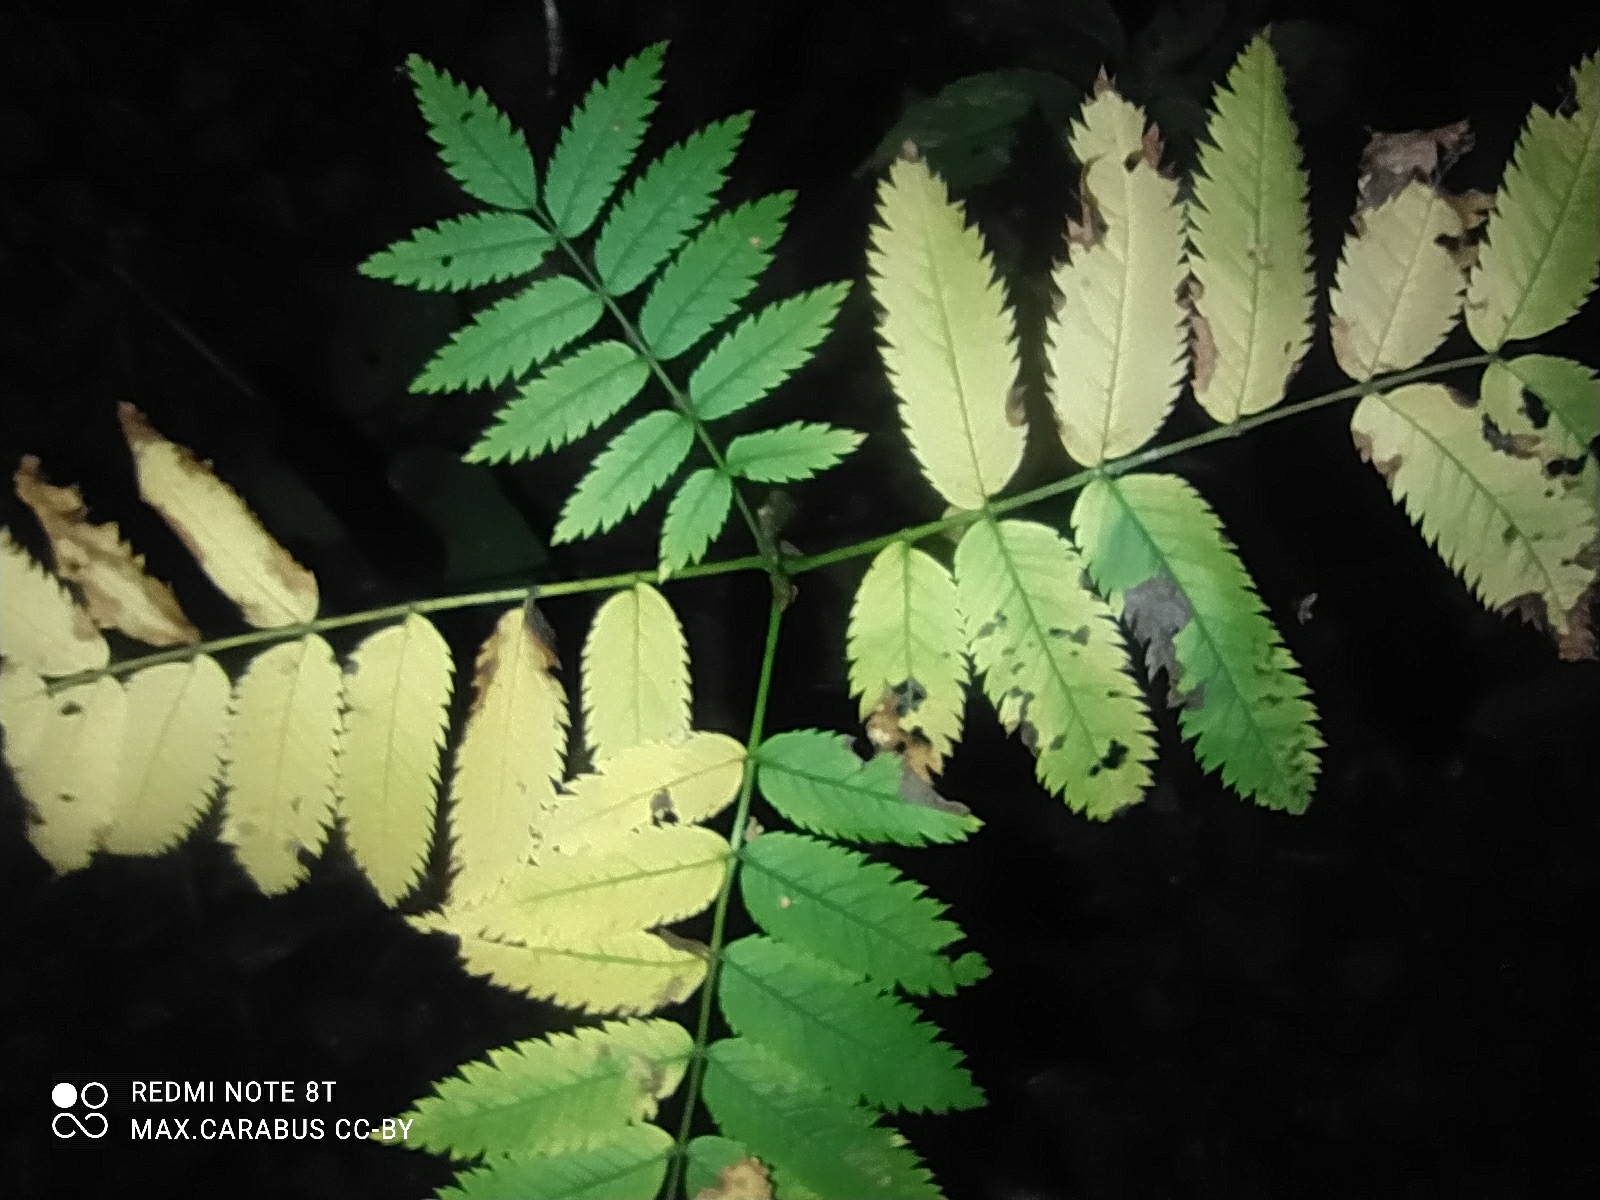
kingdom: Plantae
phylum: Tracheophyta
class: Magnoliopsida
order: Rosales
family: Rosaceae
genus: Sorbus
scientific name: Sorbus aucuparia
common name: Rowan
